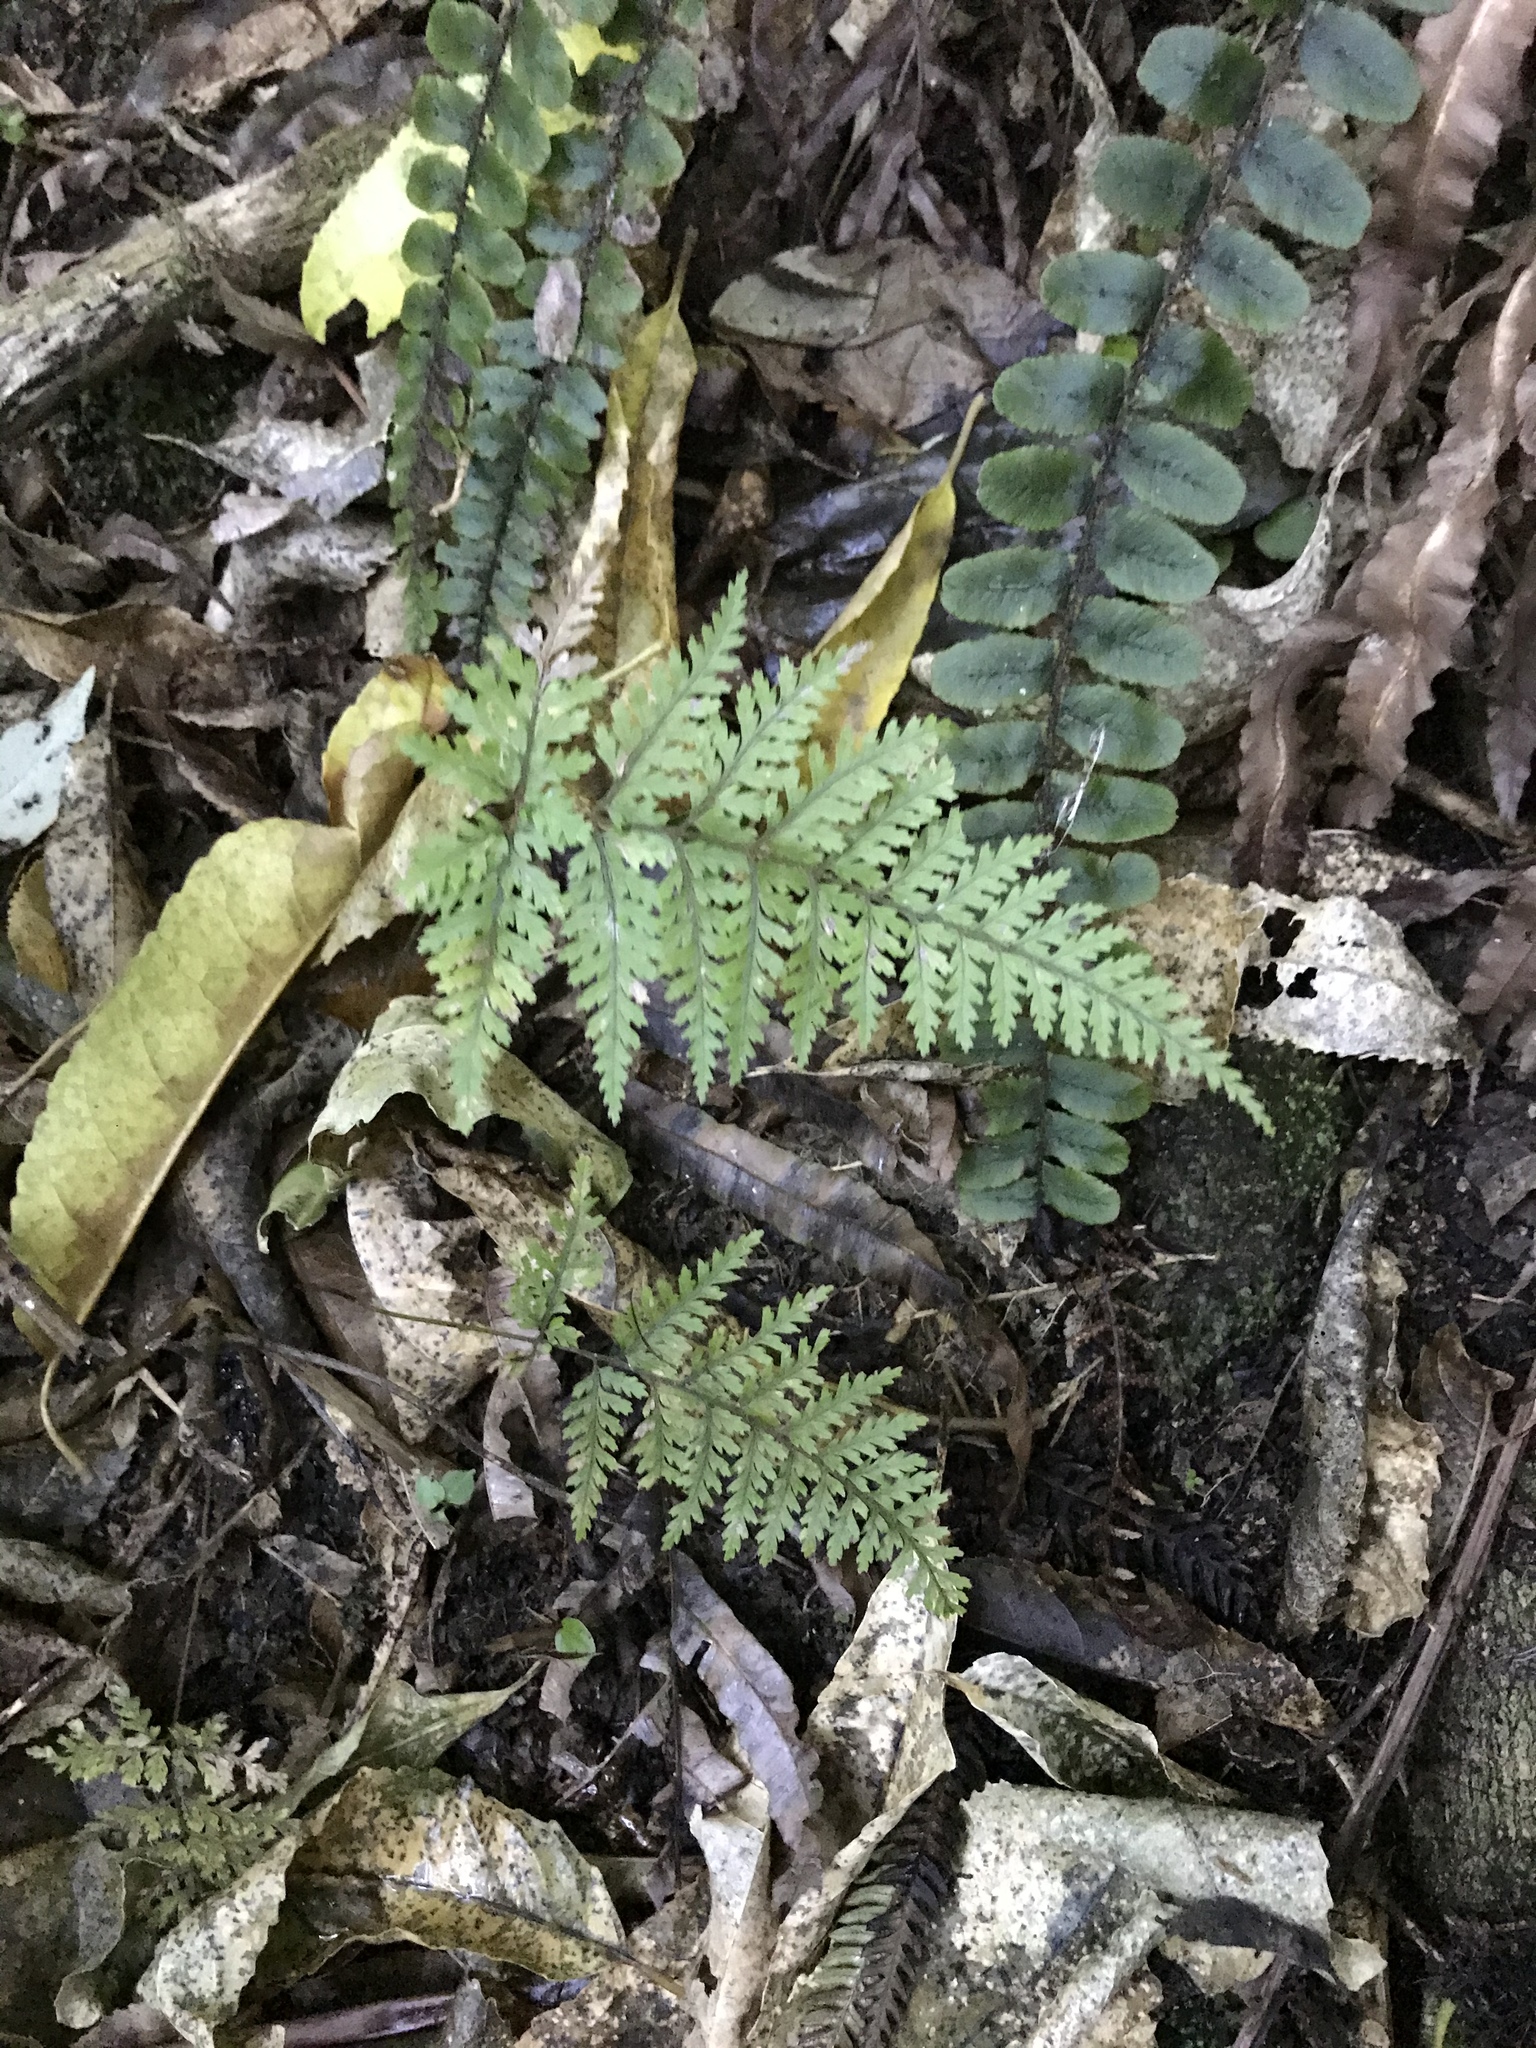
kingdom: Plantae
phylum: Tracheophyta
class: Polypodiopsida
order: Polypodiales
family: Dryopteridaceae
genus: Parapolystichum
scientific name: Parapolystichum glabellum
